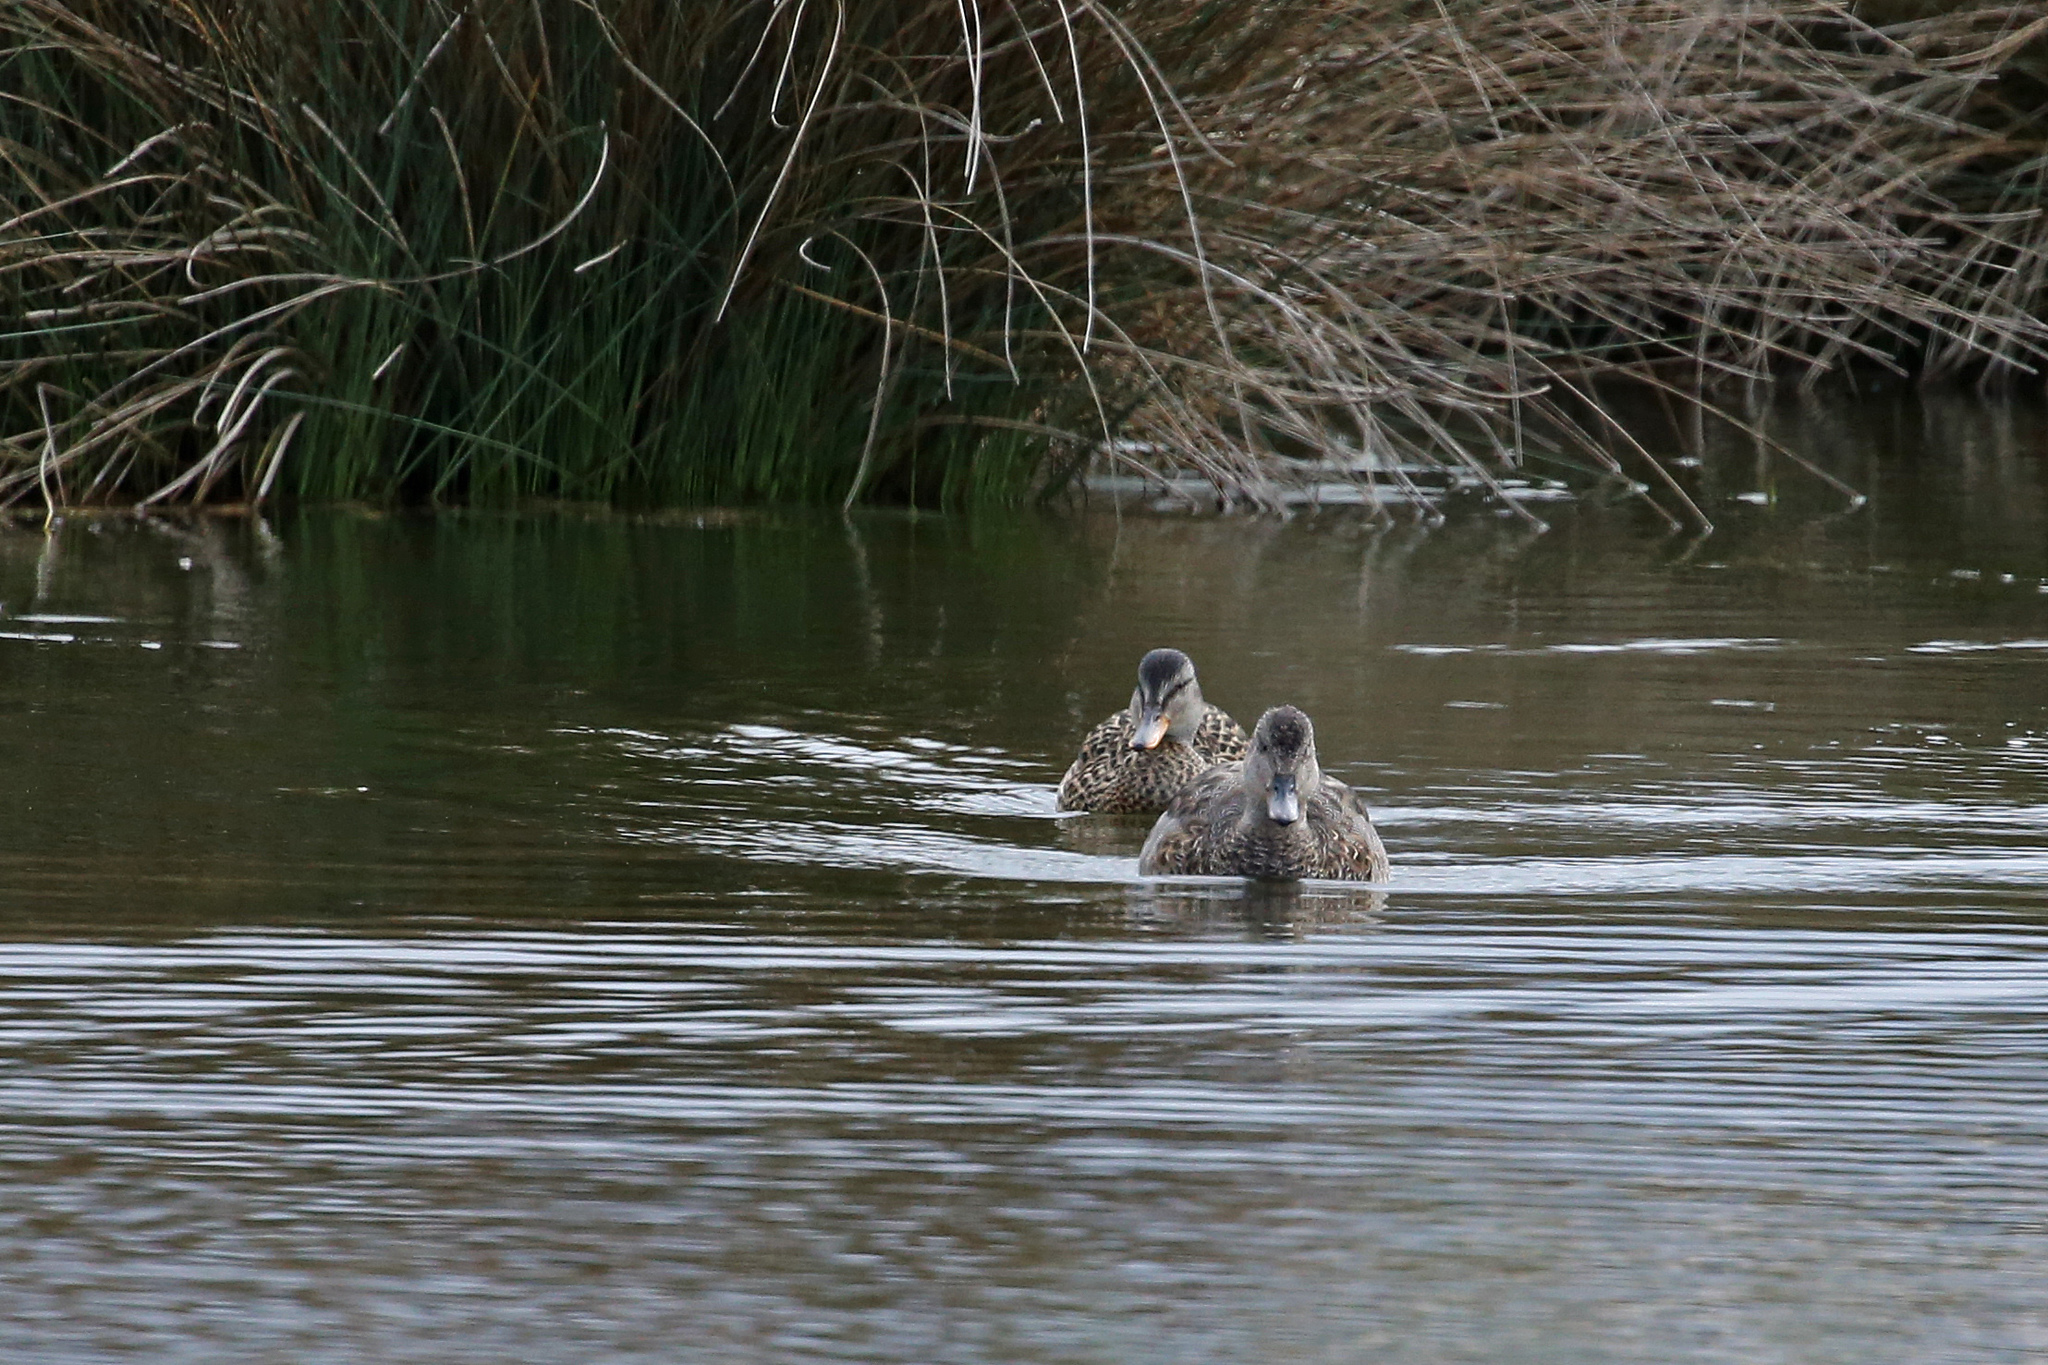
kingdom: Animalia
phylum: Chordata
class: Aves
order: Anseriformes
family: Anatidae
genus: Mareca
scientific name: Mareca strepera
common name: Gadwall
